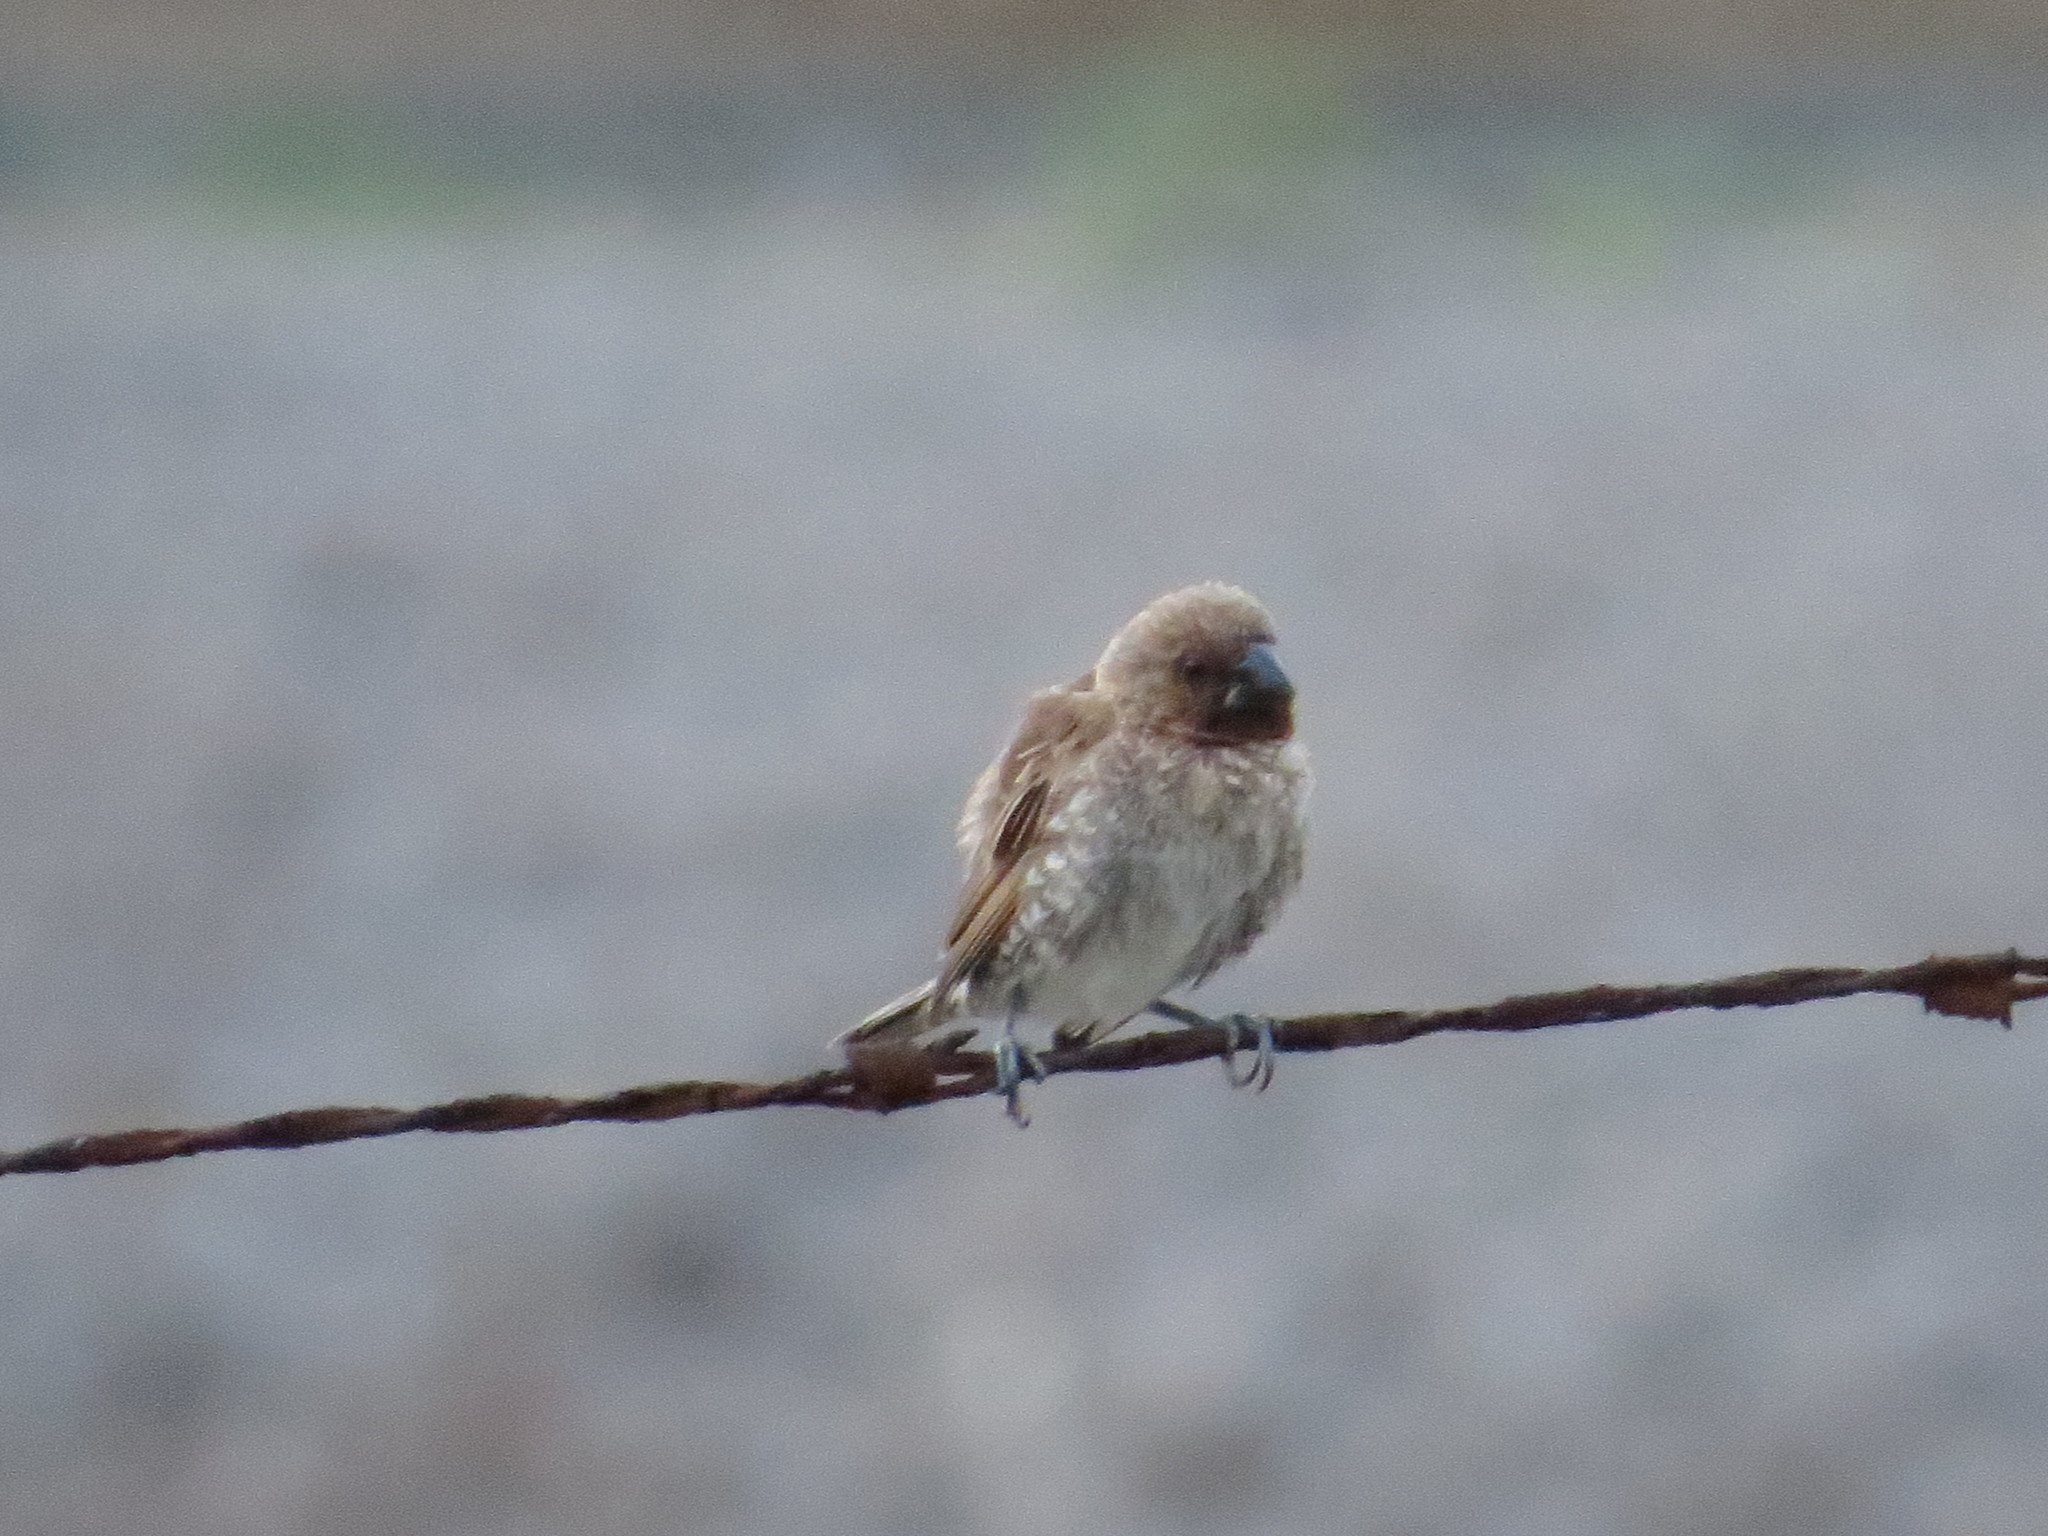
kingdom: Animalia
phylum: Chordata
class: Aves
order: Passeriformes
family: Estrildidae
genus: Lonchura
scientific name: Lonchura punctulata
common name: Scaly-breasted munia
